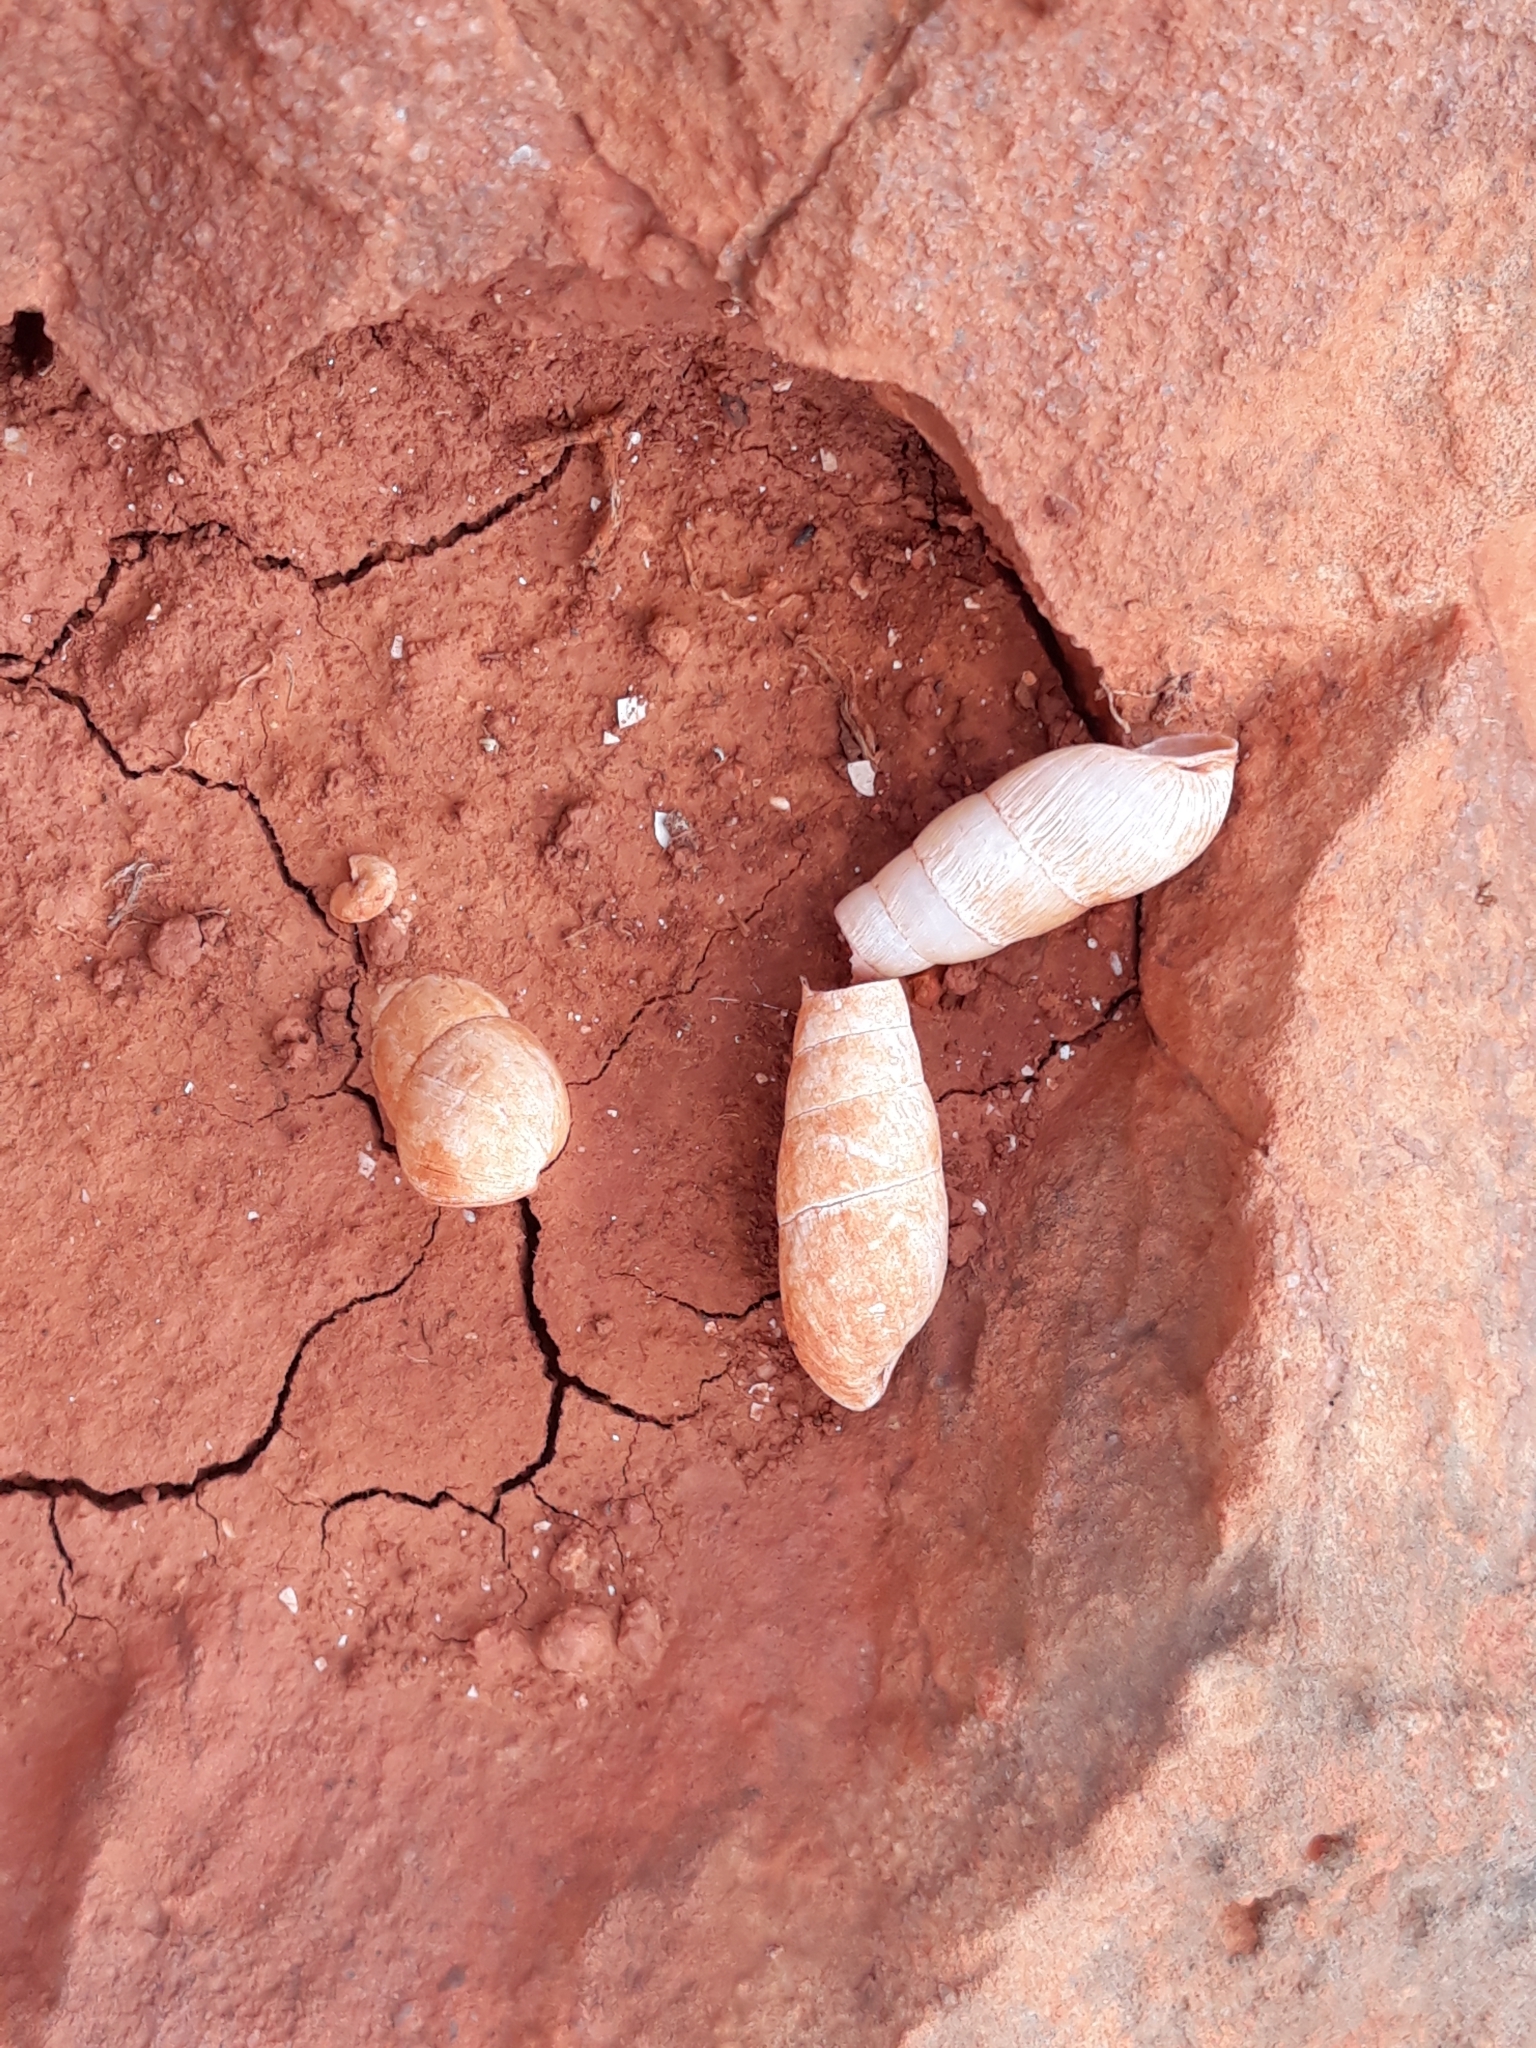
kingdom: Animalia
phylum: Mollusca
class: Gastropoda
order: Stylommatophora
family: Achatinidae
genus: Rumina
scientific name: Rumina decollata
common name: Decollate snail
